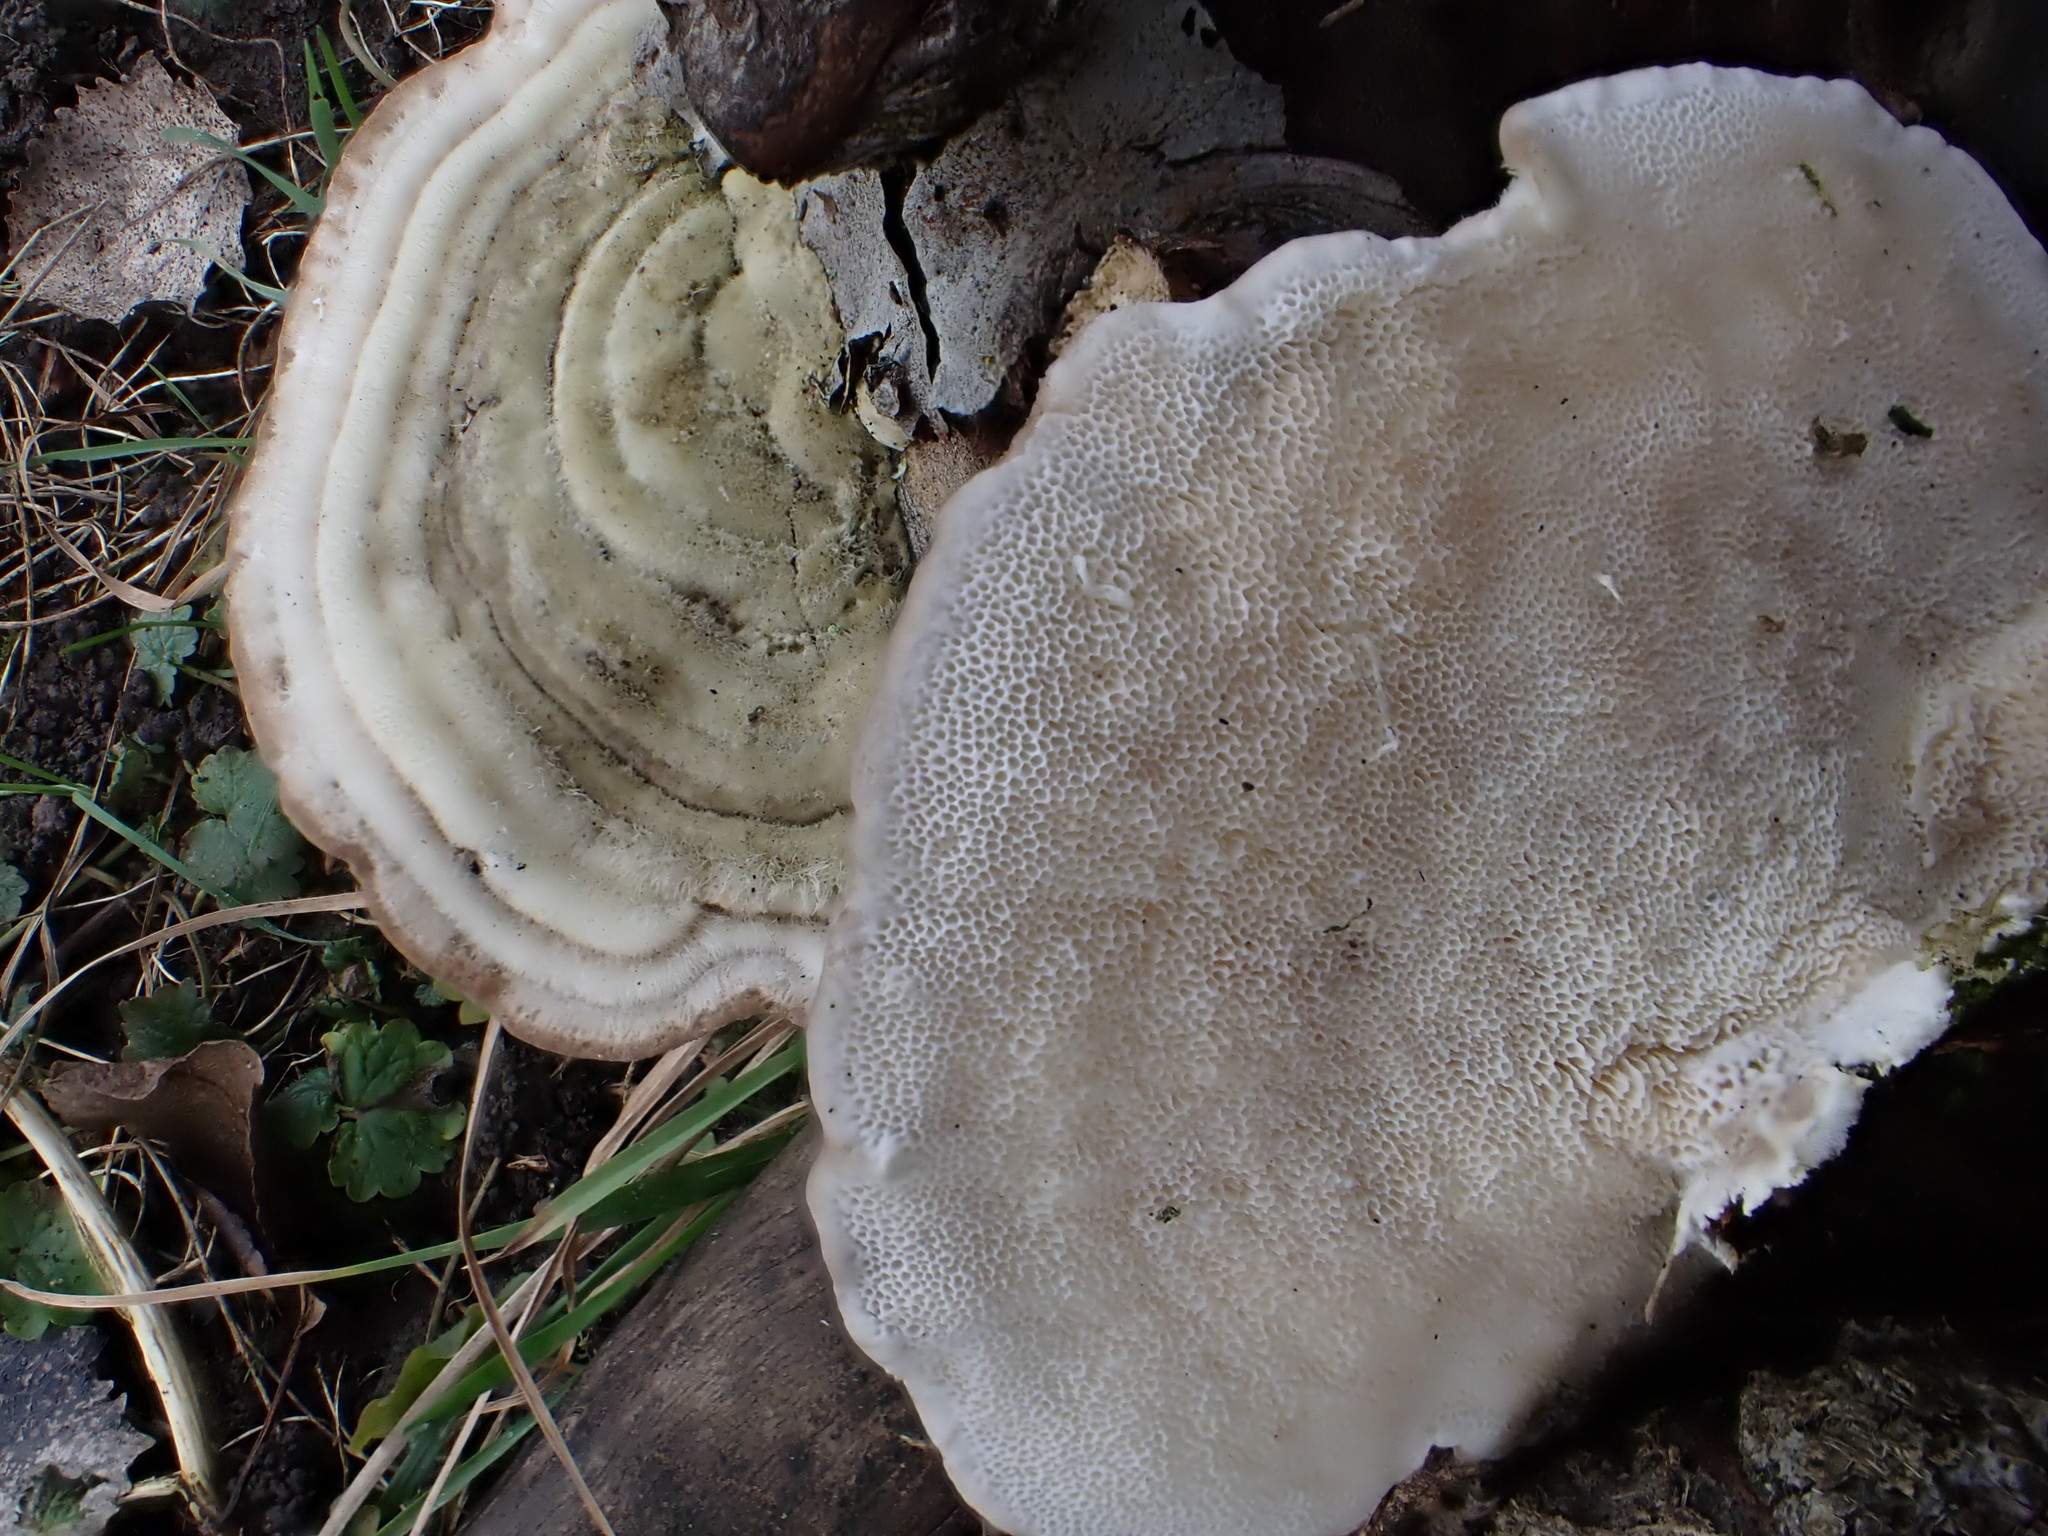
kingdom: Fungi
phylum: Basidiomycota
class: Agaricomycetes
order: Polyporales
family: Polyporaceae
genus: Trametes
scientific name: Trametes hirsuta
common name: Hairy bracket
